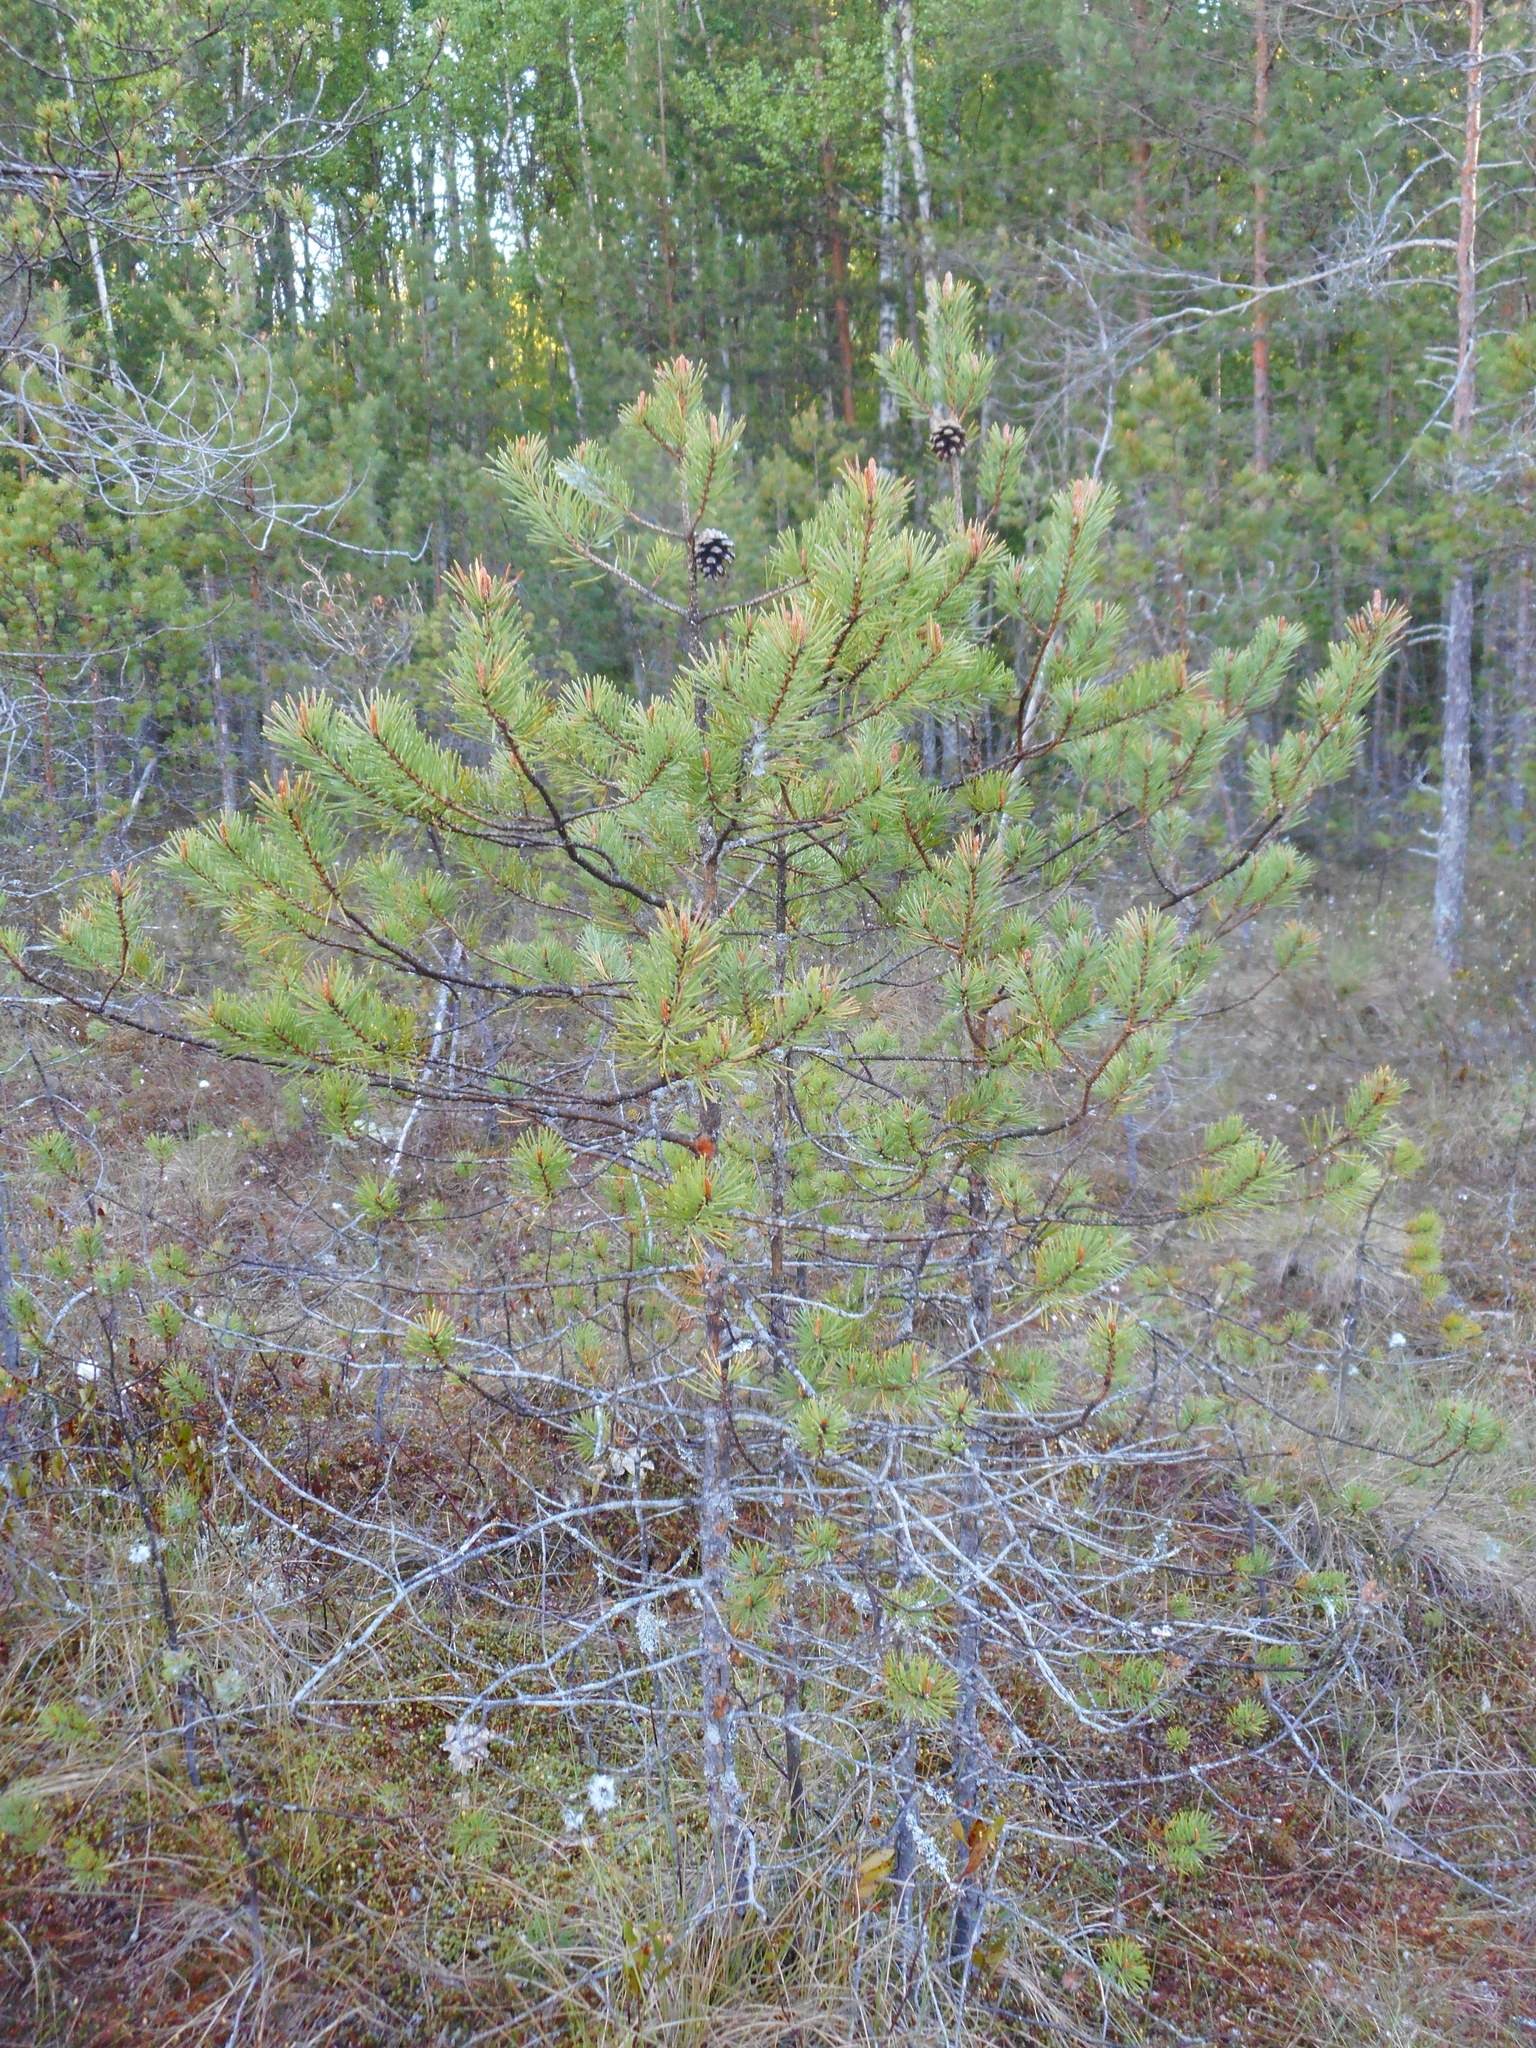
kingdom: Plantae
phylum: Tracheophyta
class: Pinopsida
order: Pinales
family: Pinaceae
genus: Pinus
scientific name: Pinus sylvestris
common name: Scots pine
